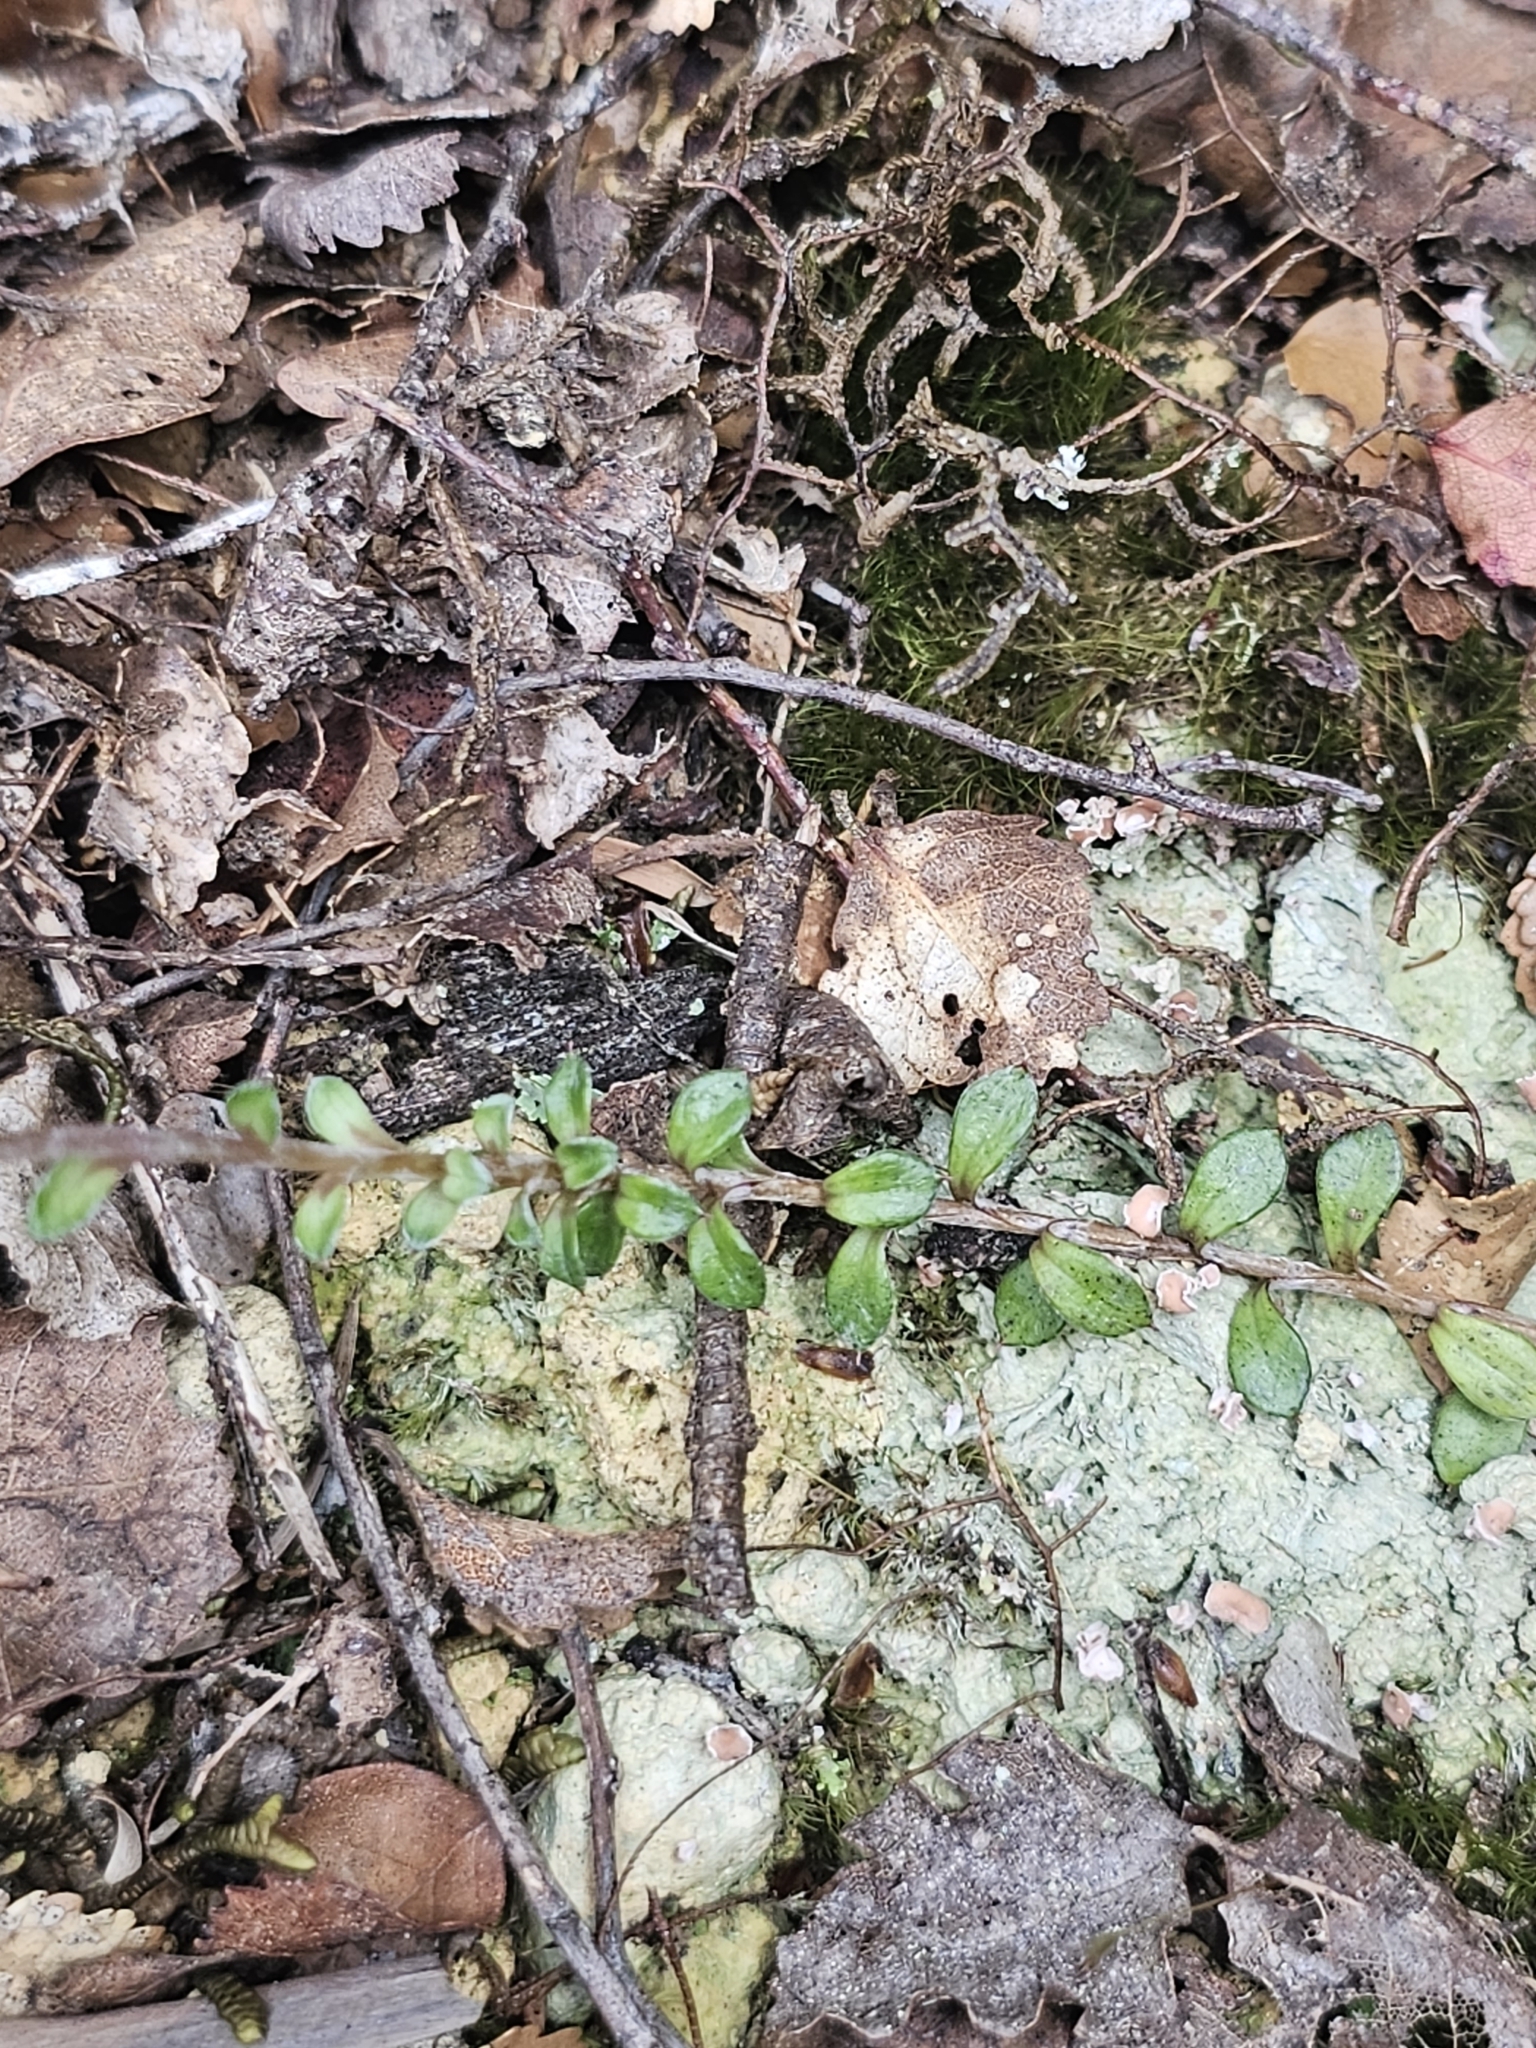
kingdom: Plantae
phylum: Tracheophyta
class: Magnoliopsida
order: Asterales
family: Asteraceae
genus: Anaphalioides
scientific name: Anaphalioides bellidioides
